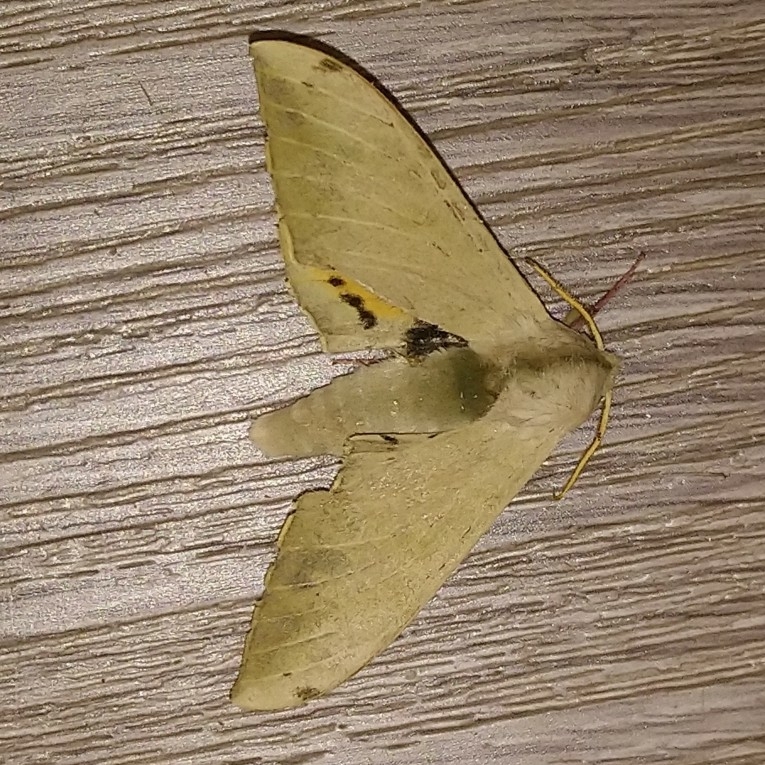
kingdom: Animalia
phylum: Arthropoda
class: Insecta
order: Lepidoptera
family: Sphingidae
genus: Pseudoclanis
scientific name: Pseudoclanis postica
